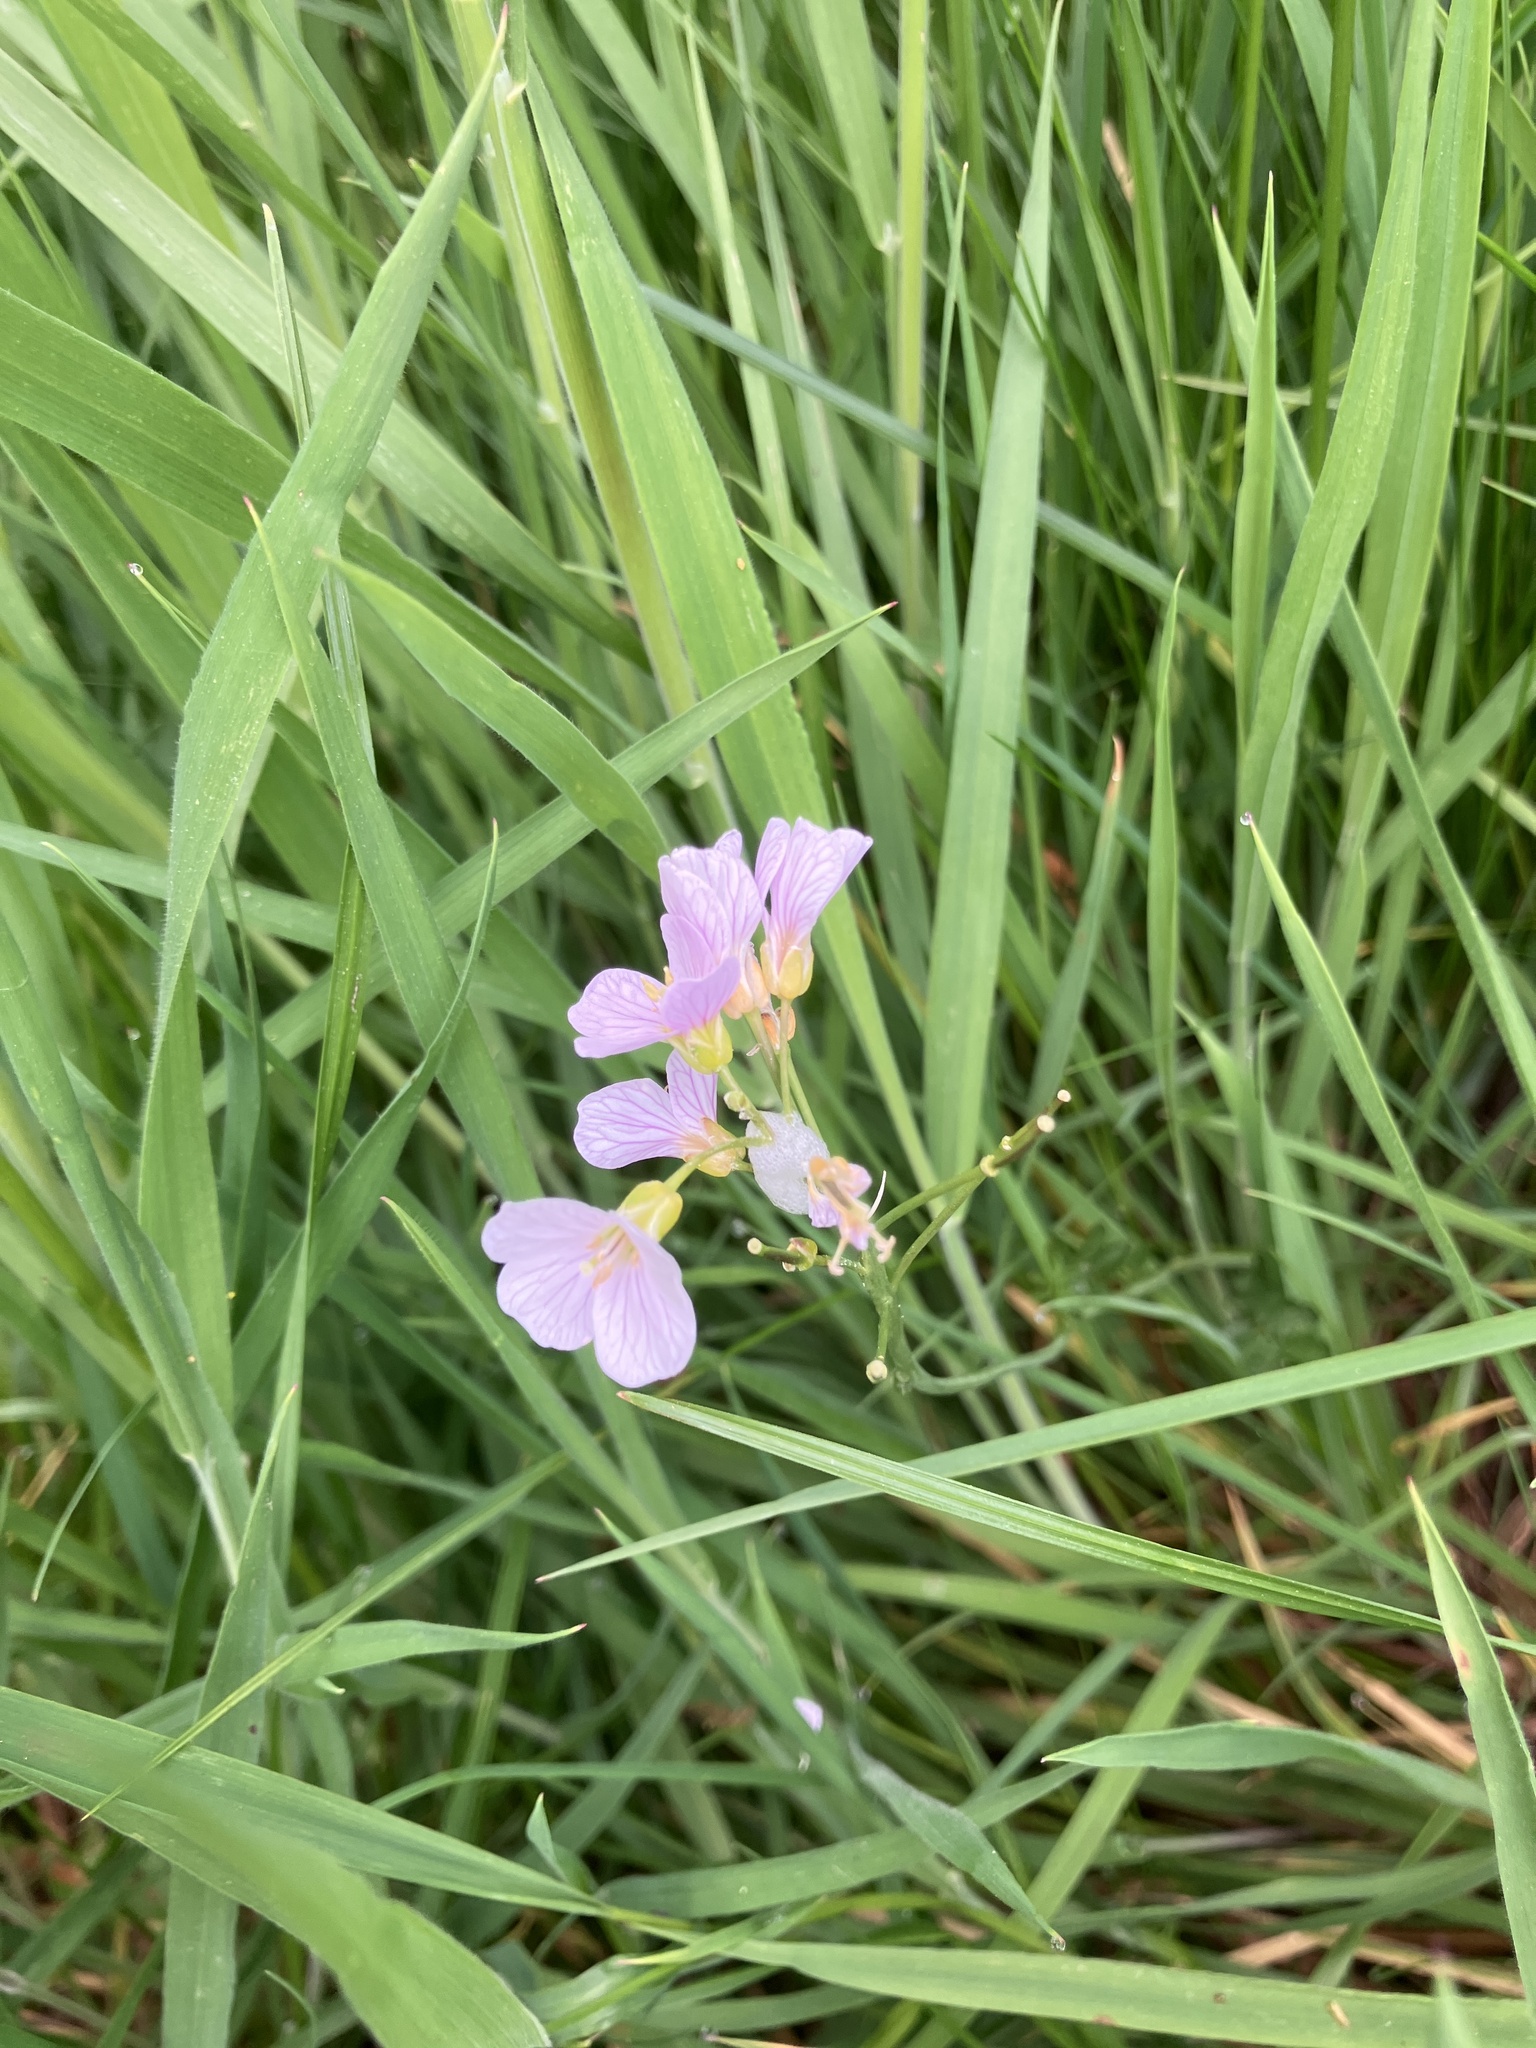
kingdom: Plantae
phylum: Tracheophyta
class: Magnoliopsida
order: Brassicales
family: Brassicaceae
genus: Cardamine
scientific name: Cardamine pratensis
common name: Cuckoo flower
